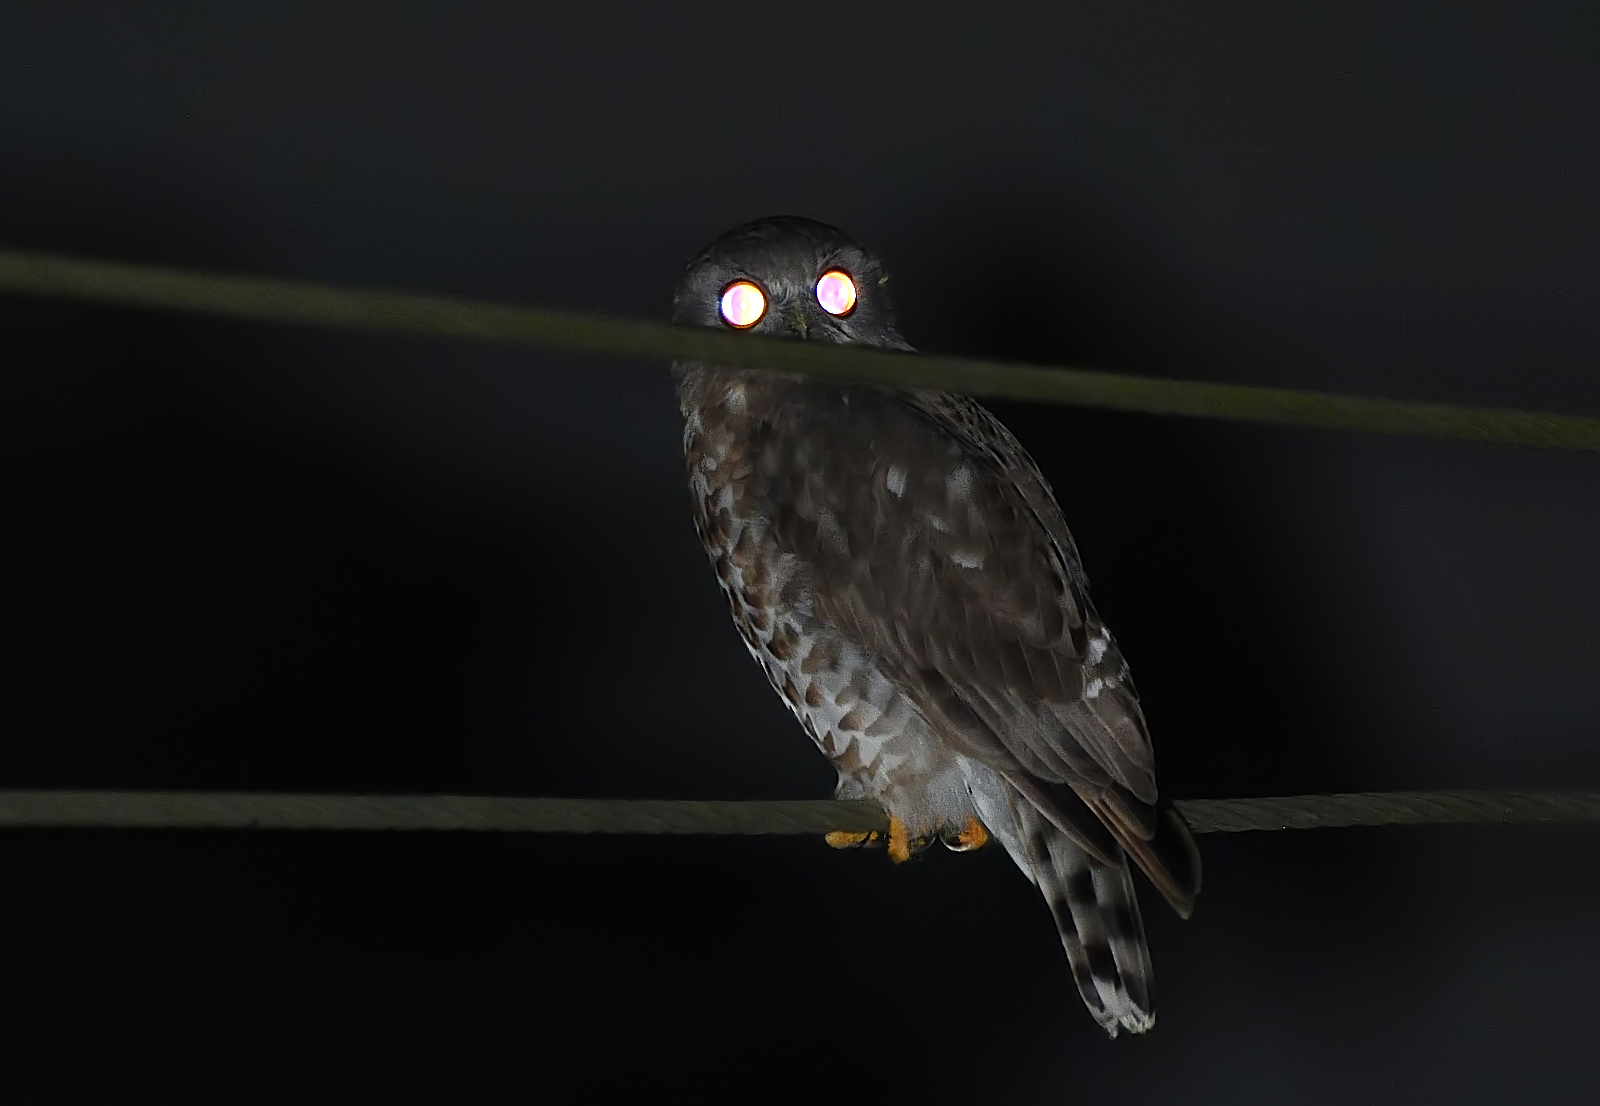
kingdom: Animalia
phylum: Chordata
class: Aves
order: Strigiformes
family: Strigidae
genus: Ninox
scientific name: Ninox scutulata
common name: Brown hawk-owl
